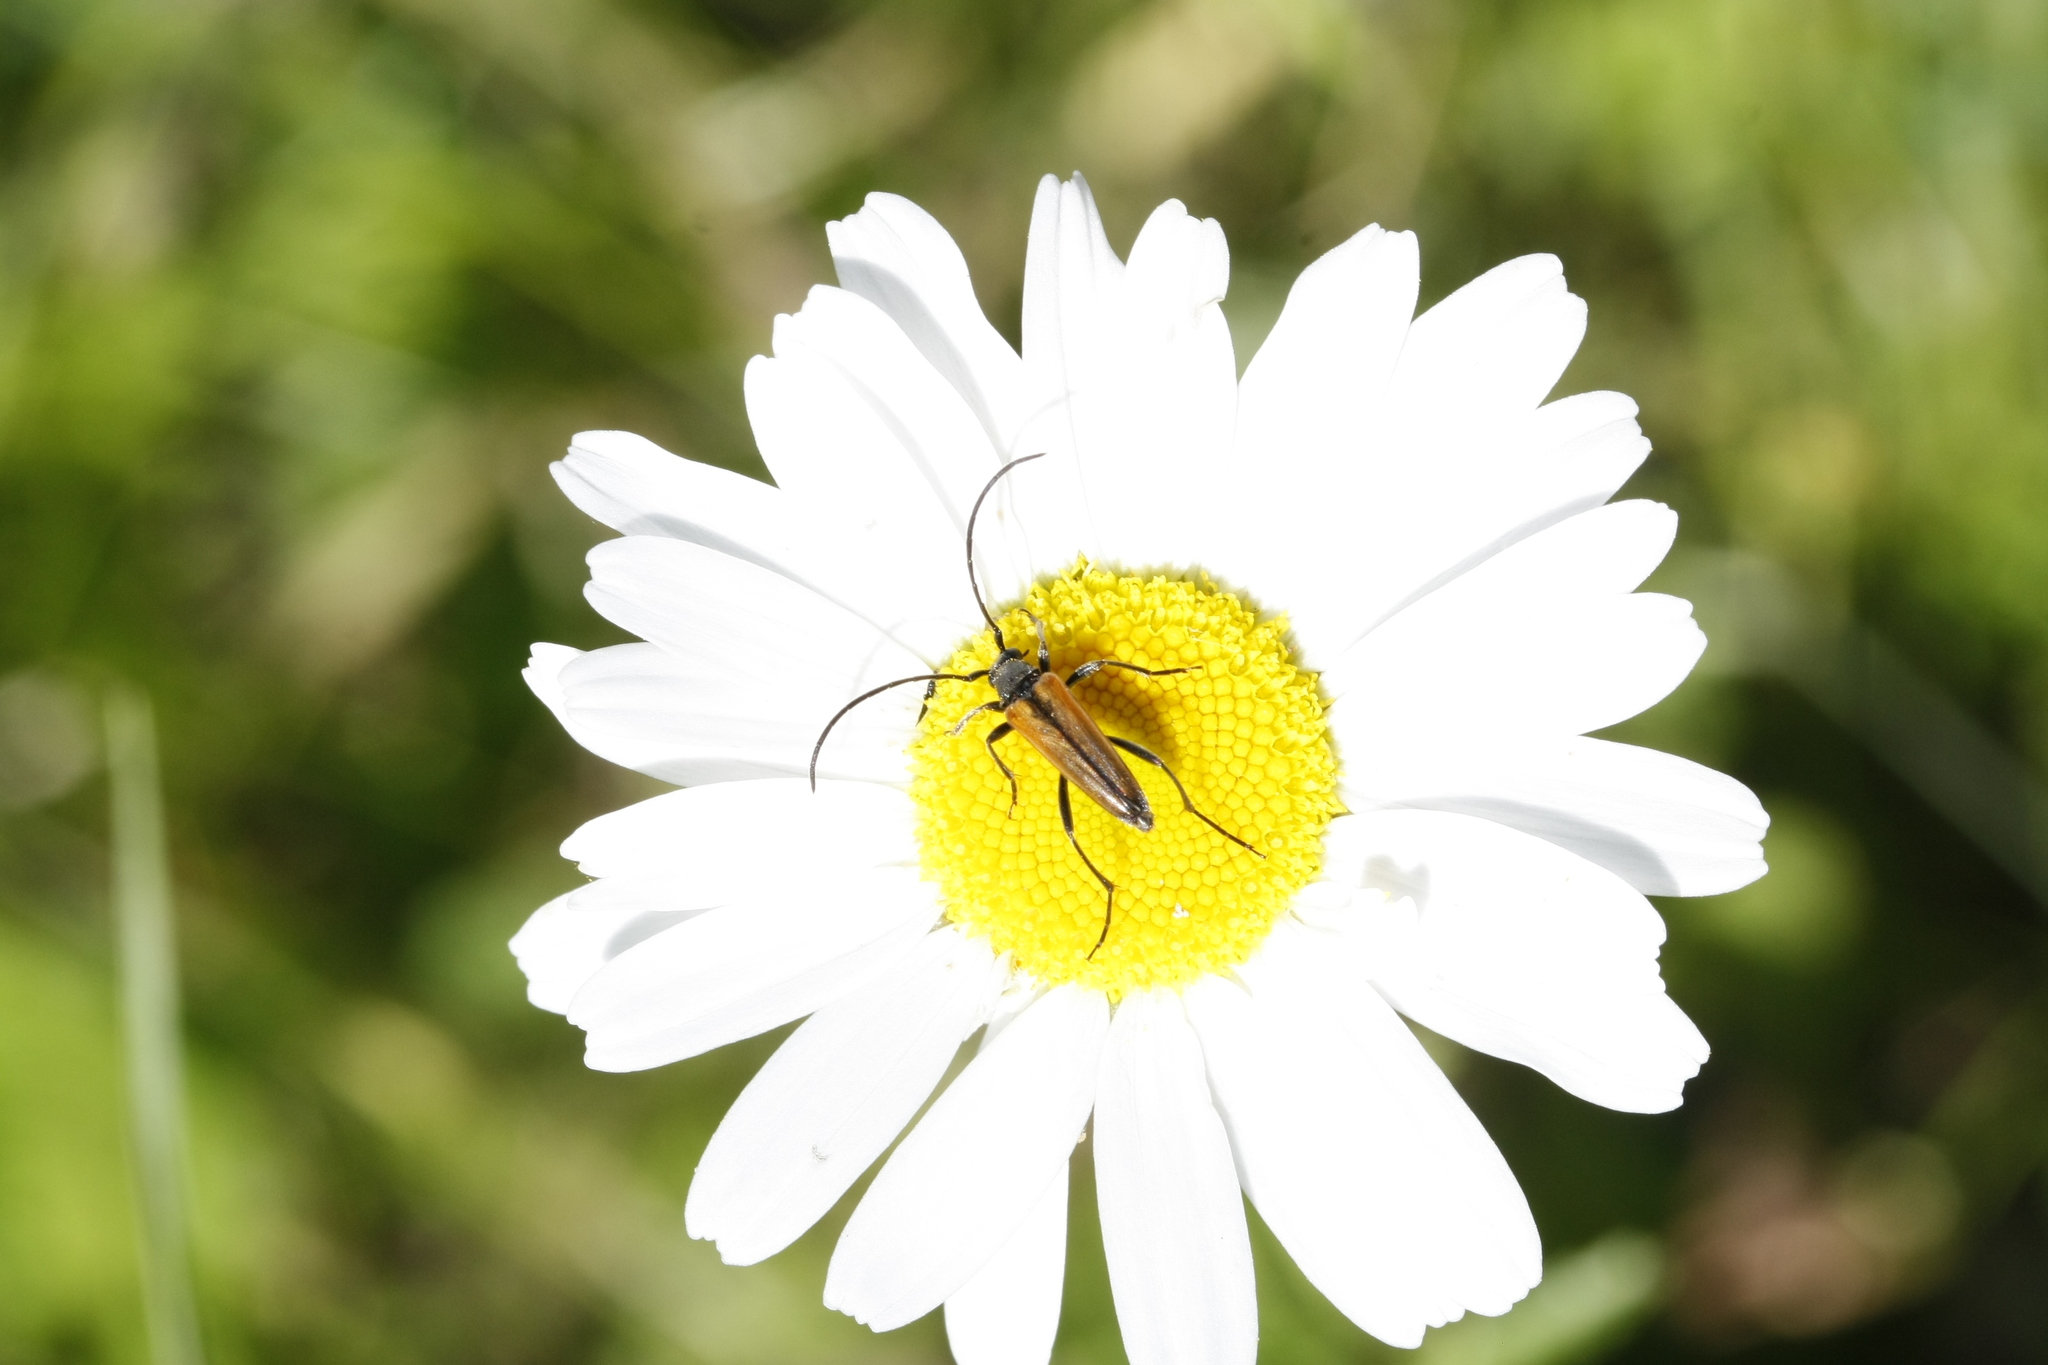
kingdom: Animalia
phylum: Arthropoda
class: Insecta
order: Coleoptera
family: Cerambycidae
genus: Stenurella
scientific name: Stenurella melanura
